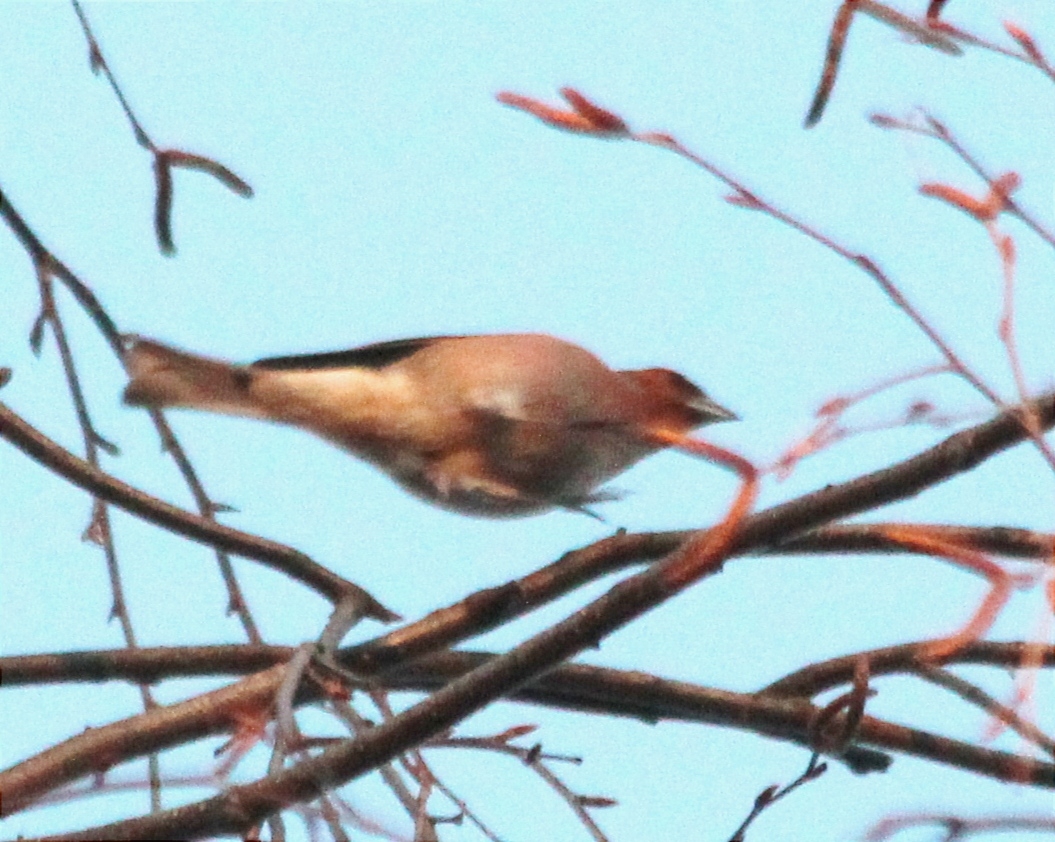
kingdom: Animalia
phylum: Chordata
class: Aves
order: Passeriformes
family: Fringillidae
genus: Fringilla
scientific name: Fringilla coelebs
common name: Common chaffinch
